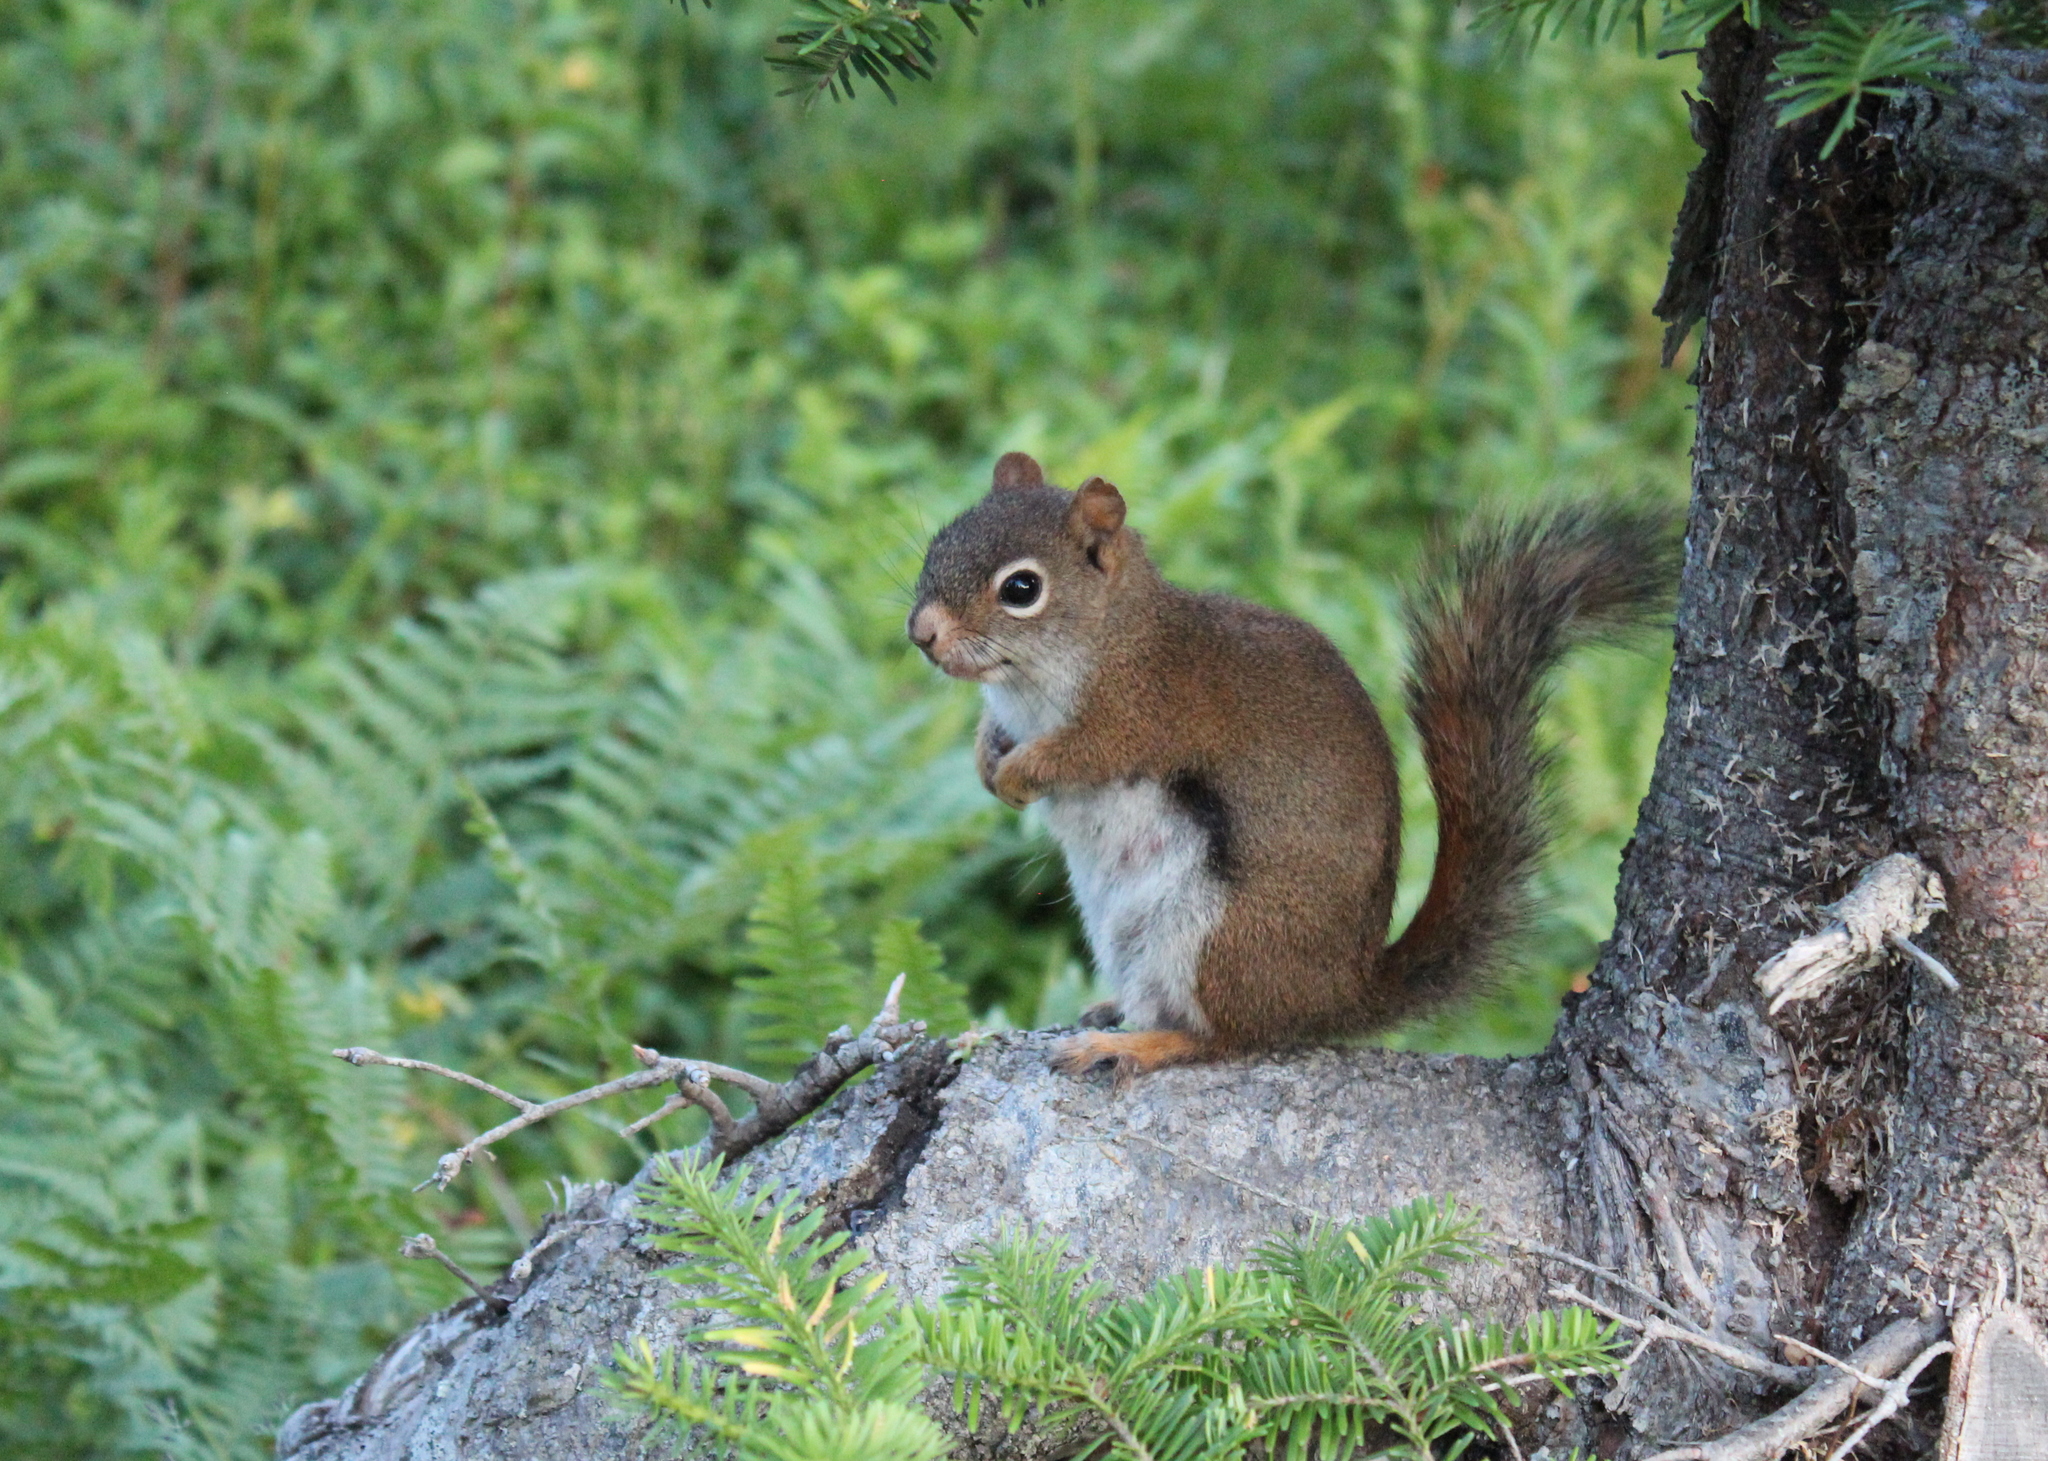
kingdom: Animalia
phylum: Chordata
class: Mammalia
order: Rodentia
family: Sciuridae
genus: Tamiasciurus
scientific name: Tamiasciurus hudsonicus
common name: Red squirrel
